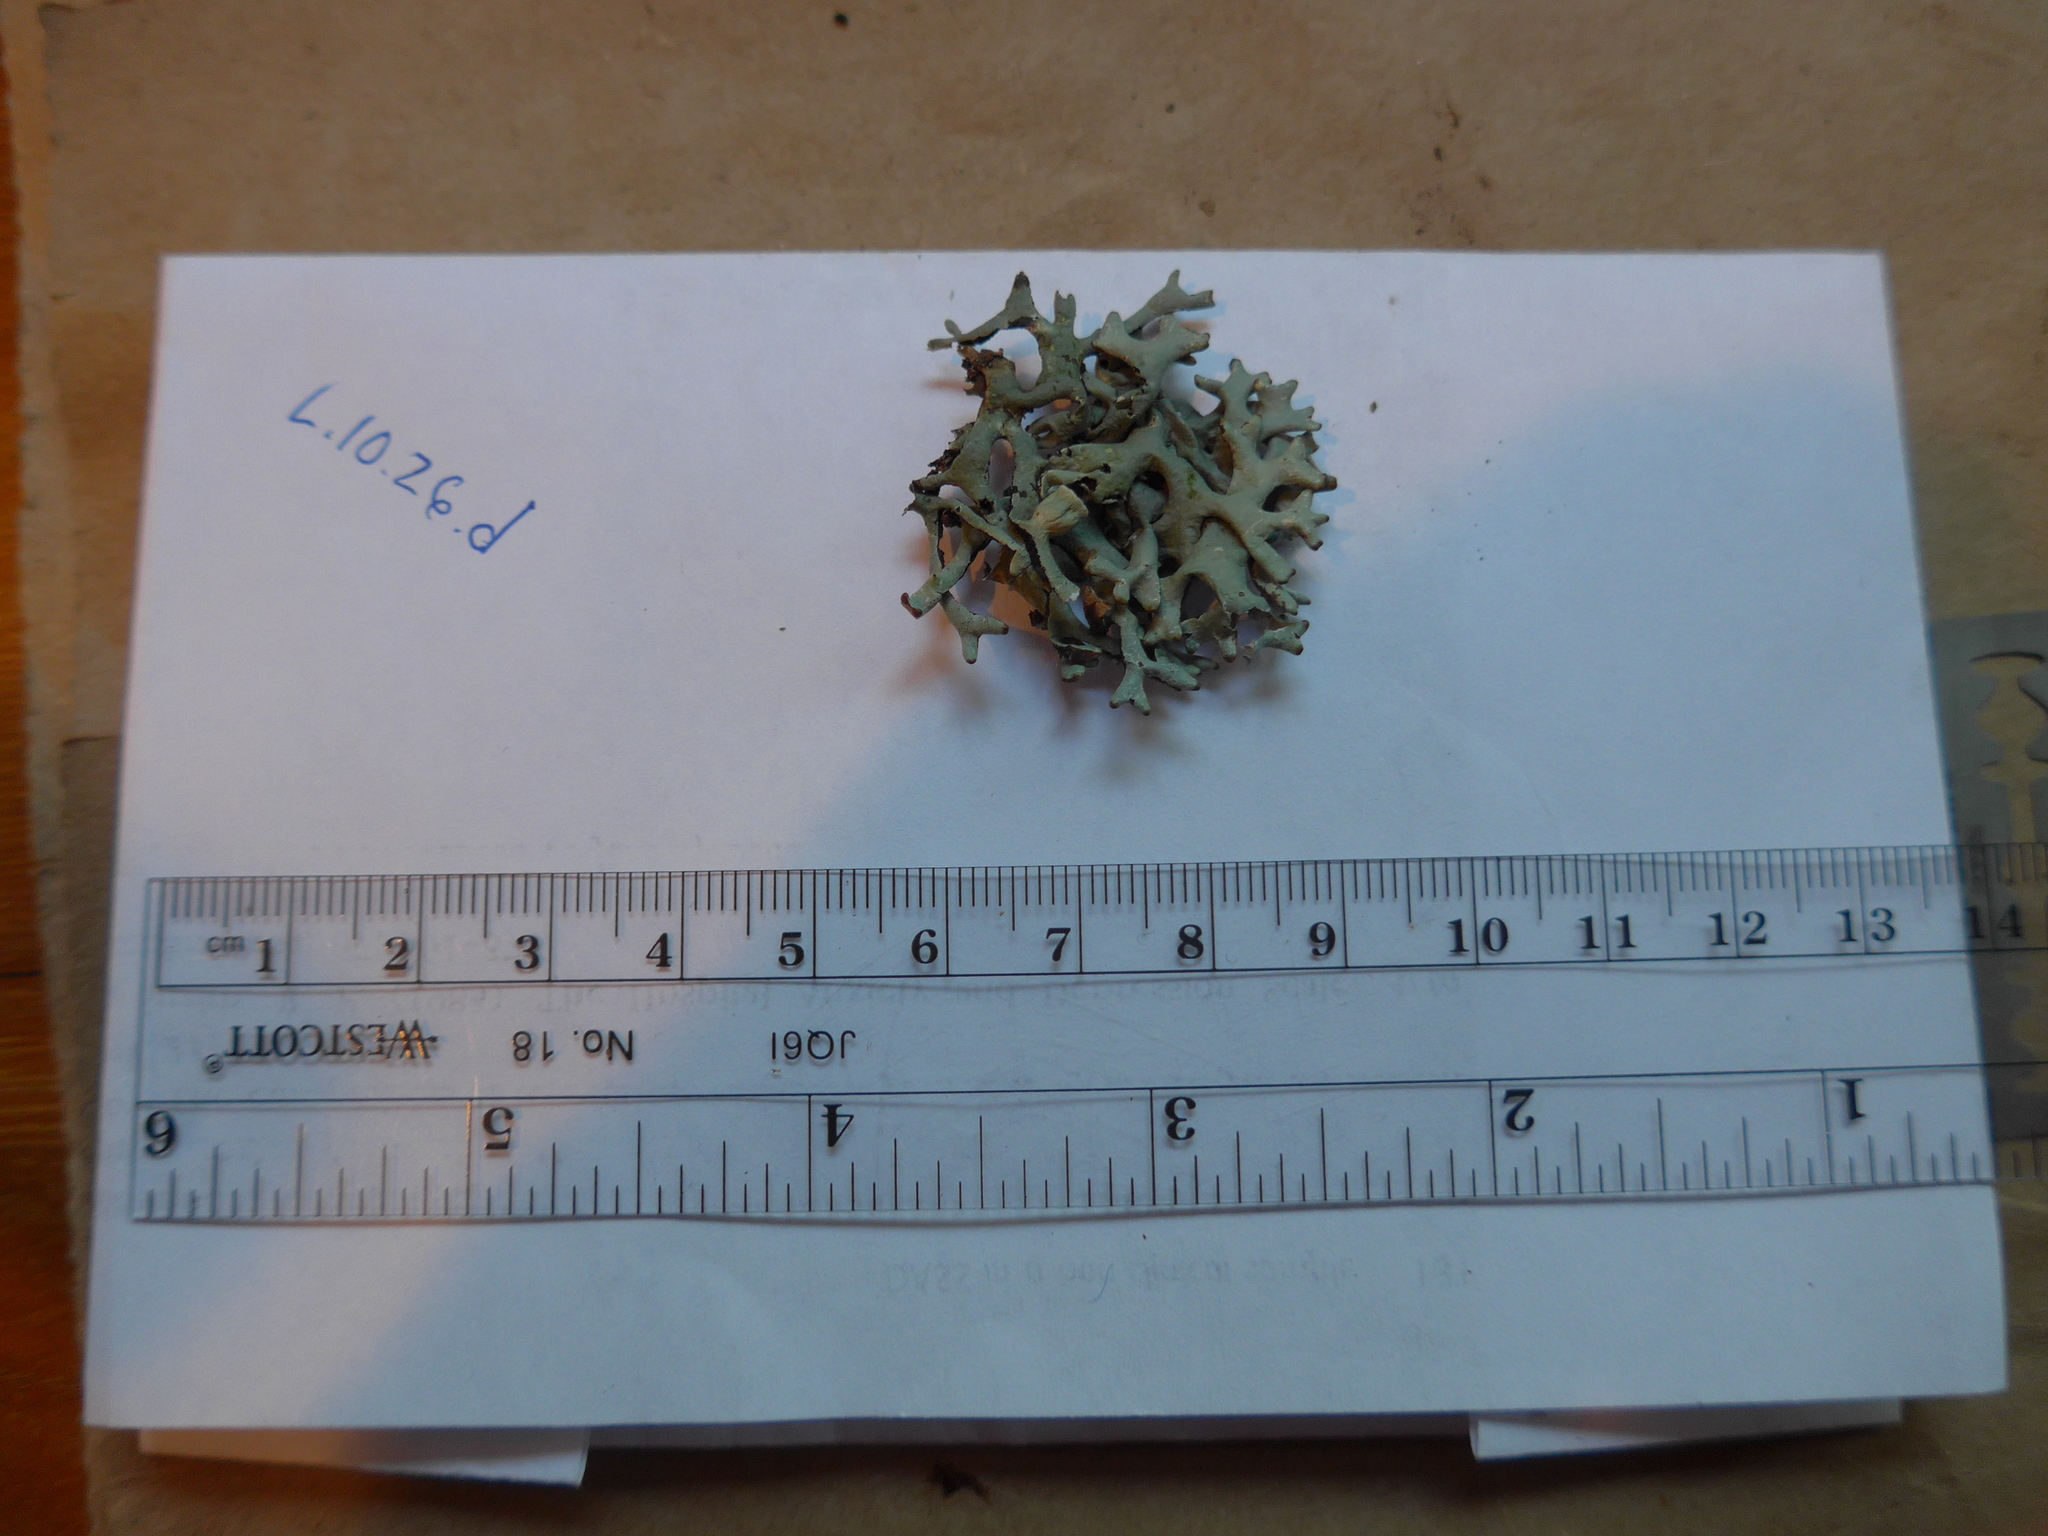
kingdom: Fungi
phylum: Ascomycota
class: Lecanoromycetes
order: Lecanorales
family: Parmeliaceae
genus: Hypogymnia
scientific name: Hypogymnia imshaugii
